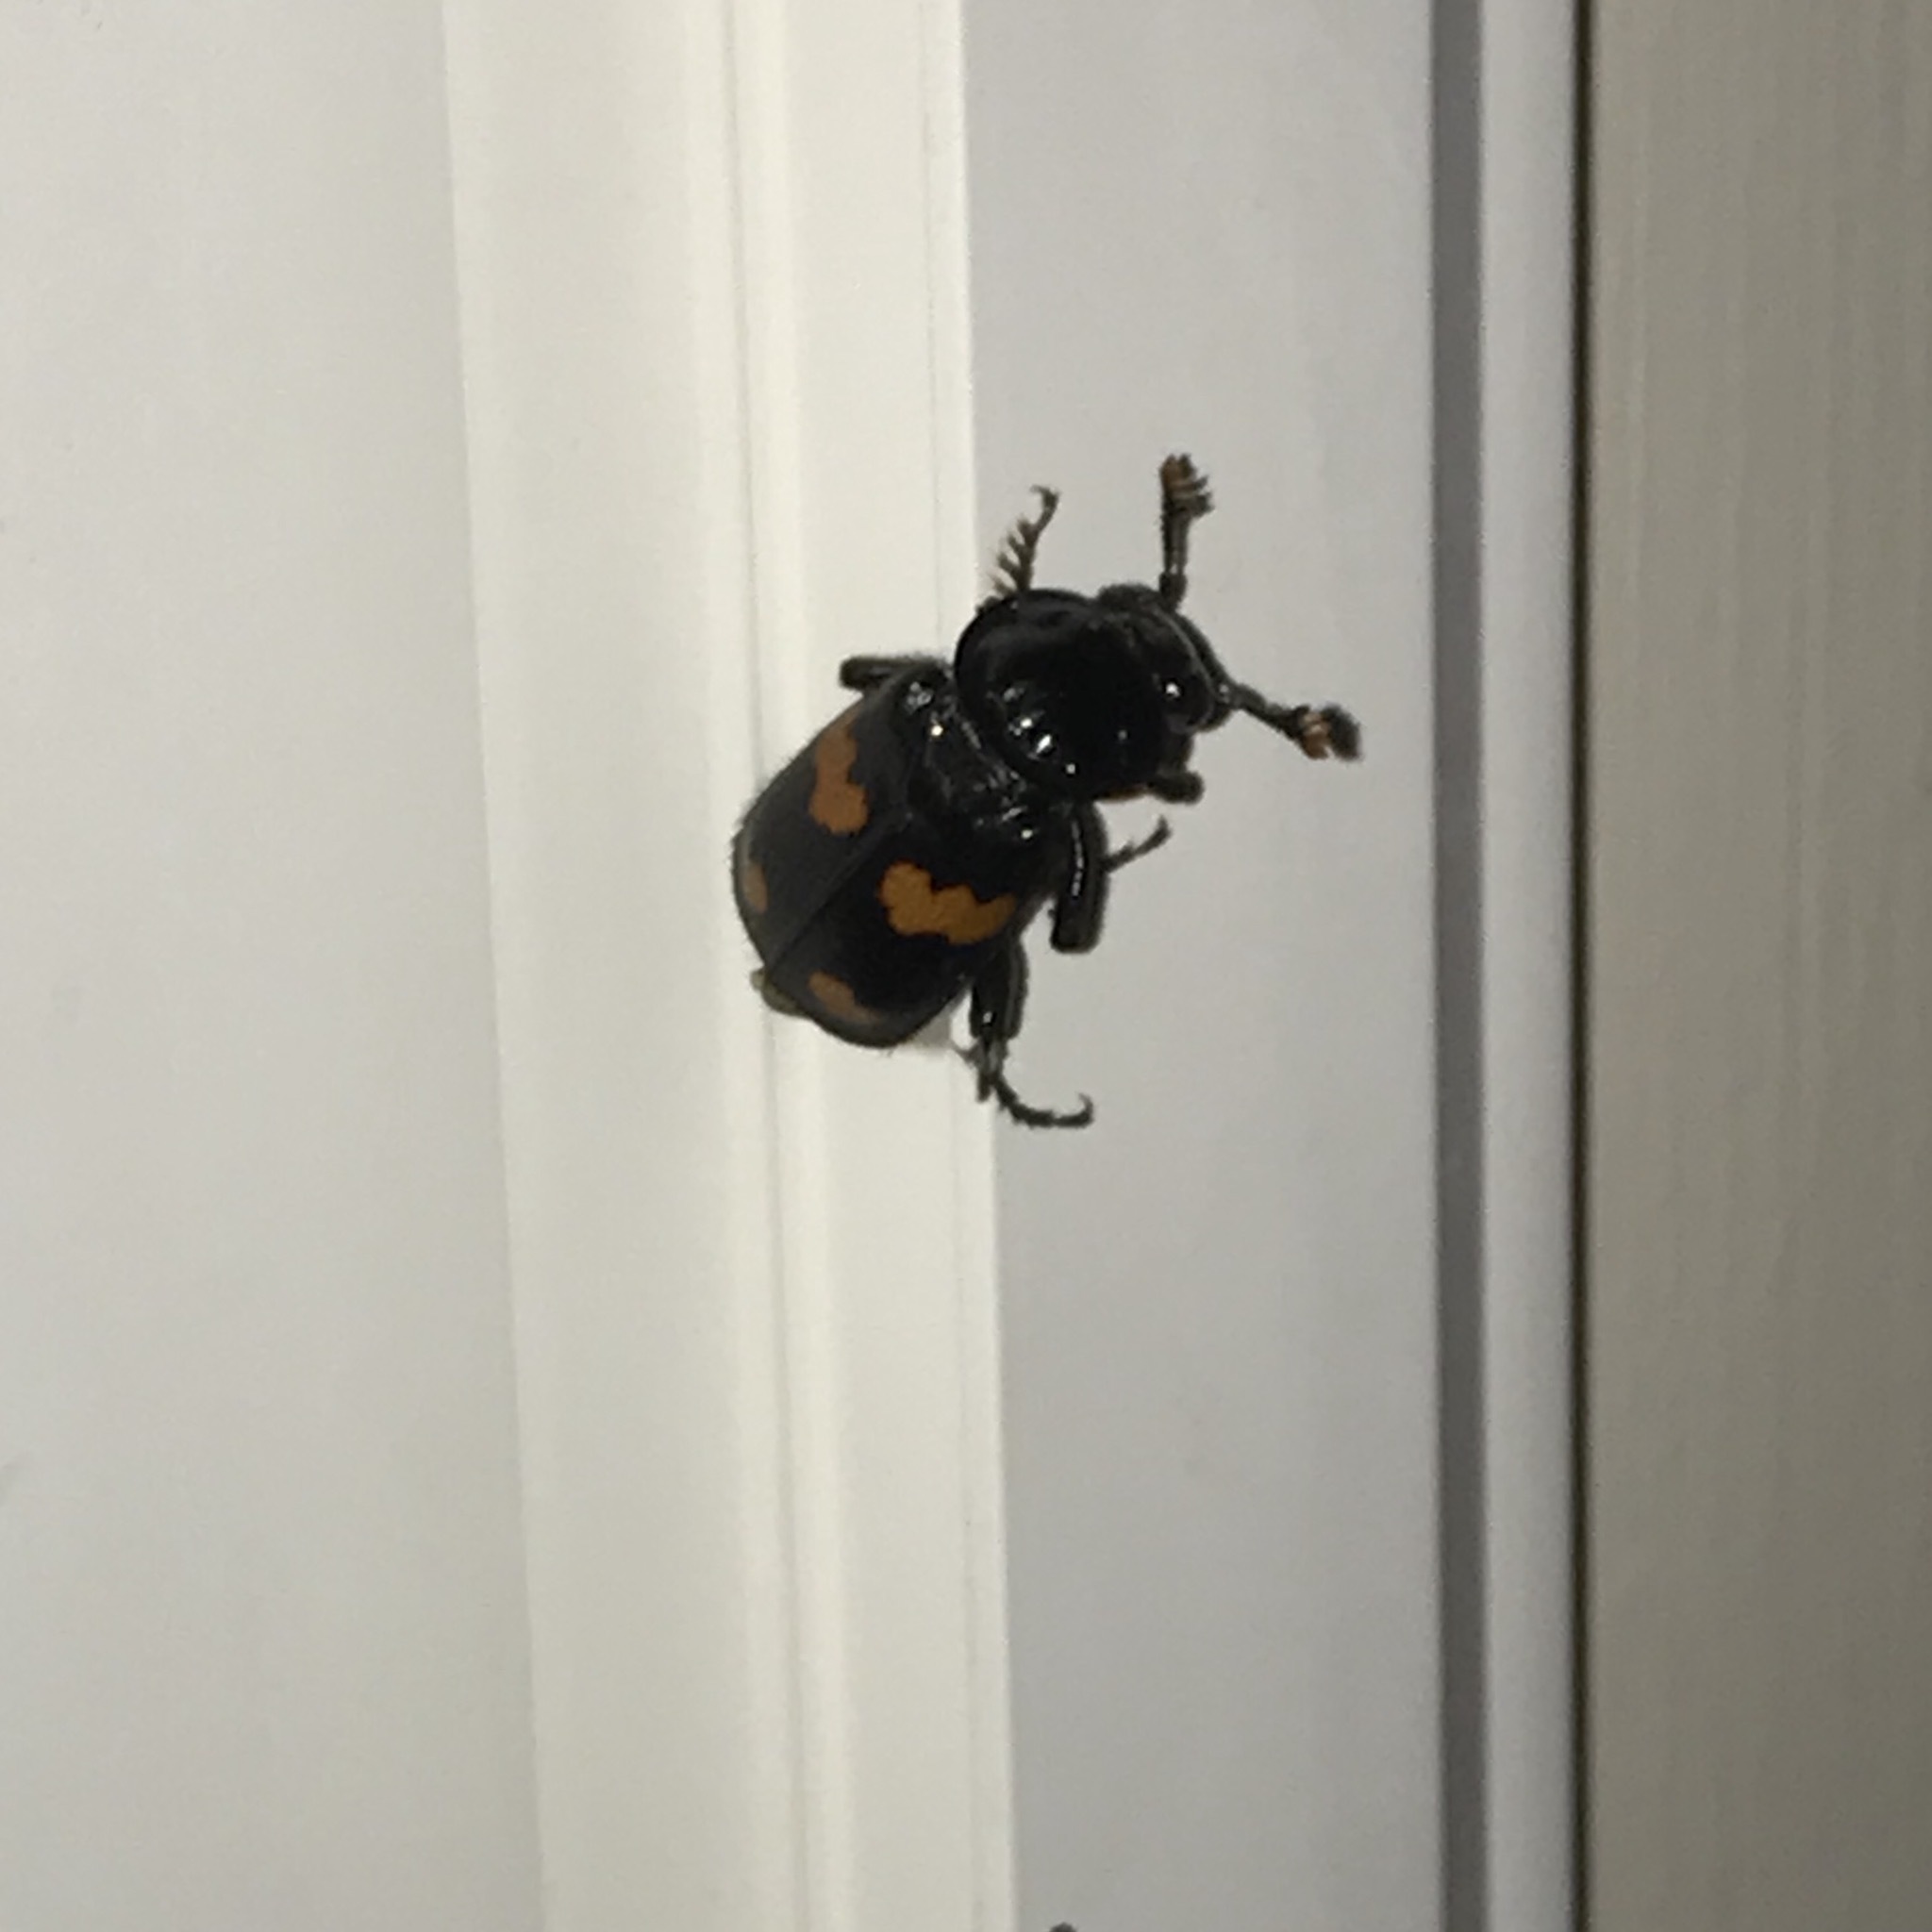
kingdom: Animalia
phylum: Arthropoda
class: Insecta
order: Coleoptera
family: Staphylinidae
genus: Nicrophorus
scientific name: Nicrophorus orbicollis
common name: Roundneck sexton beetle
